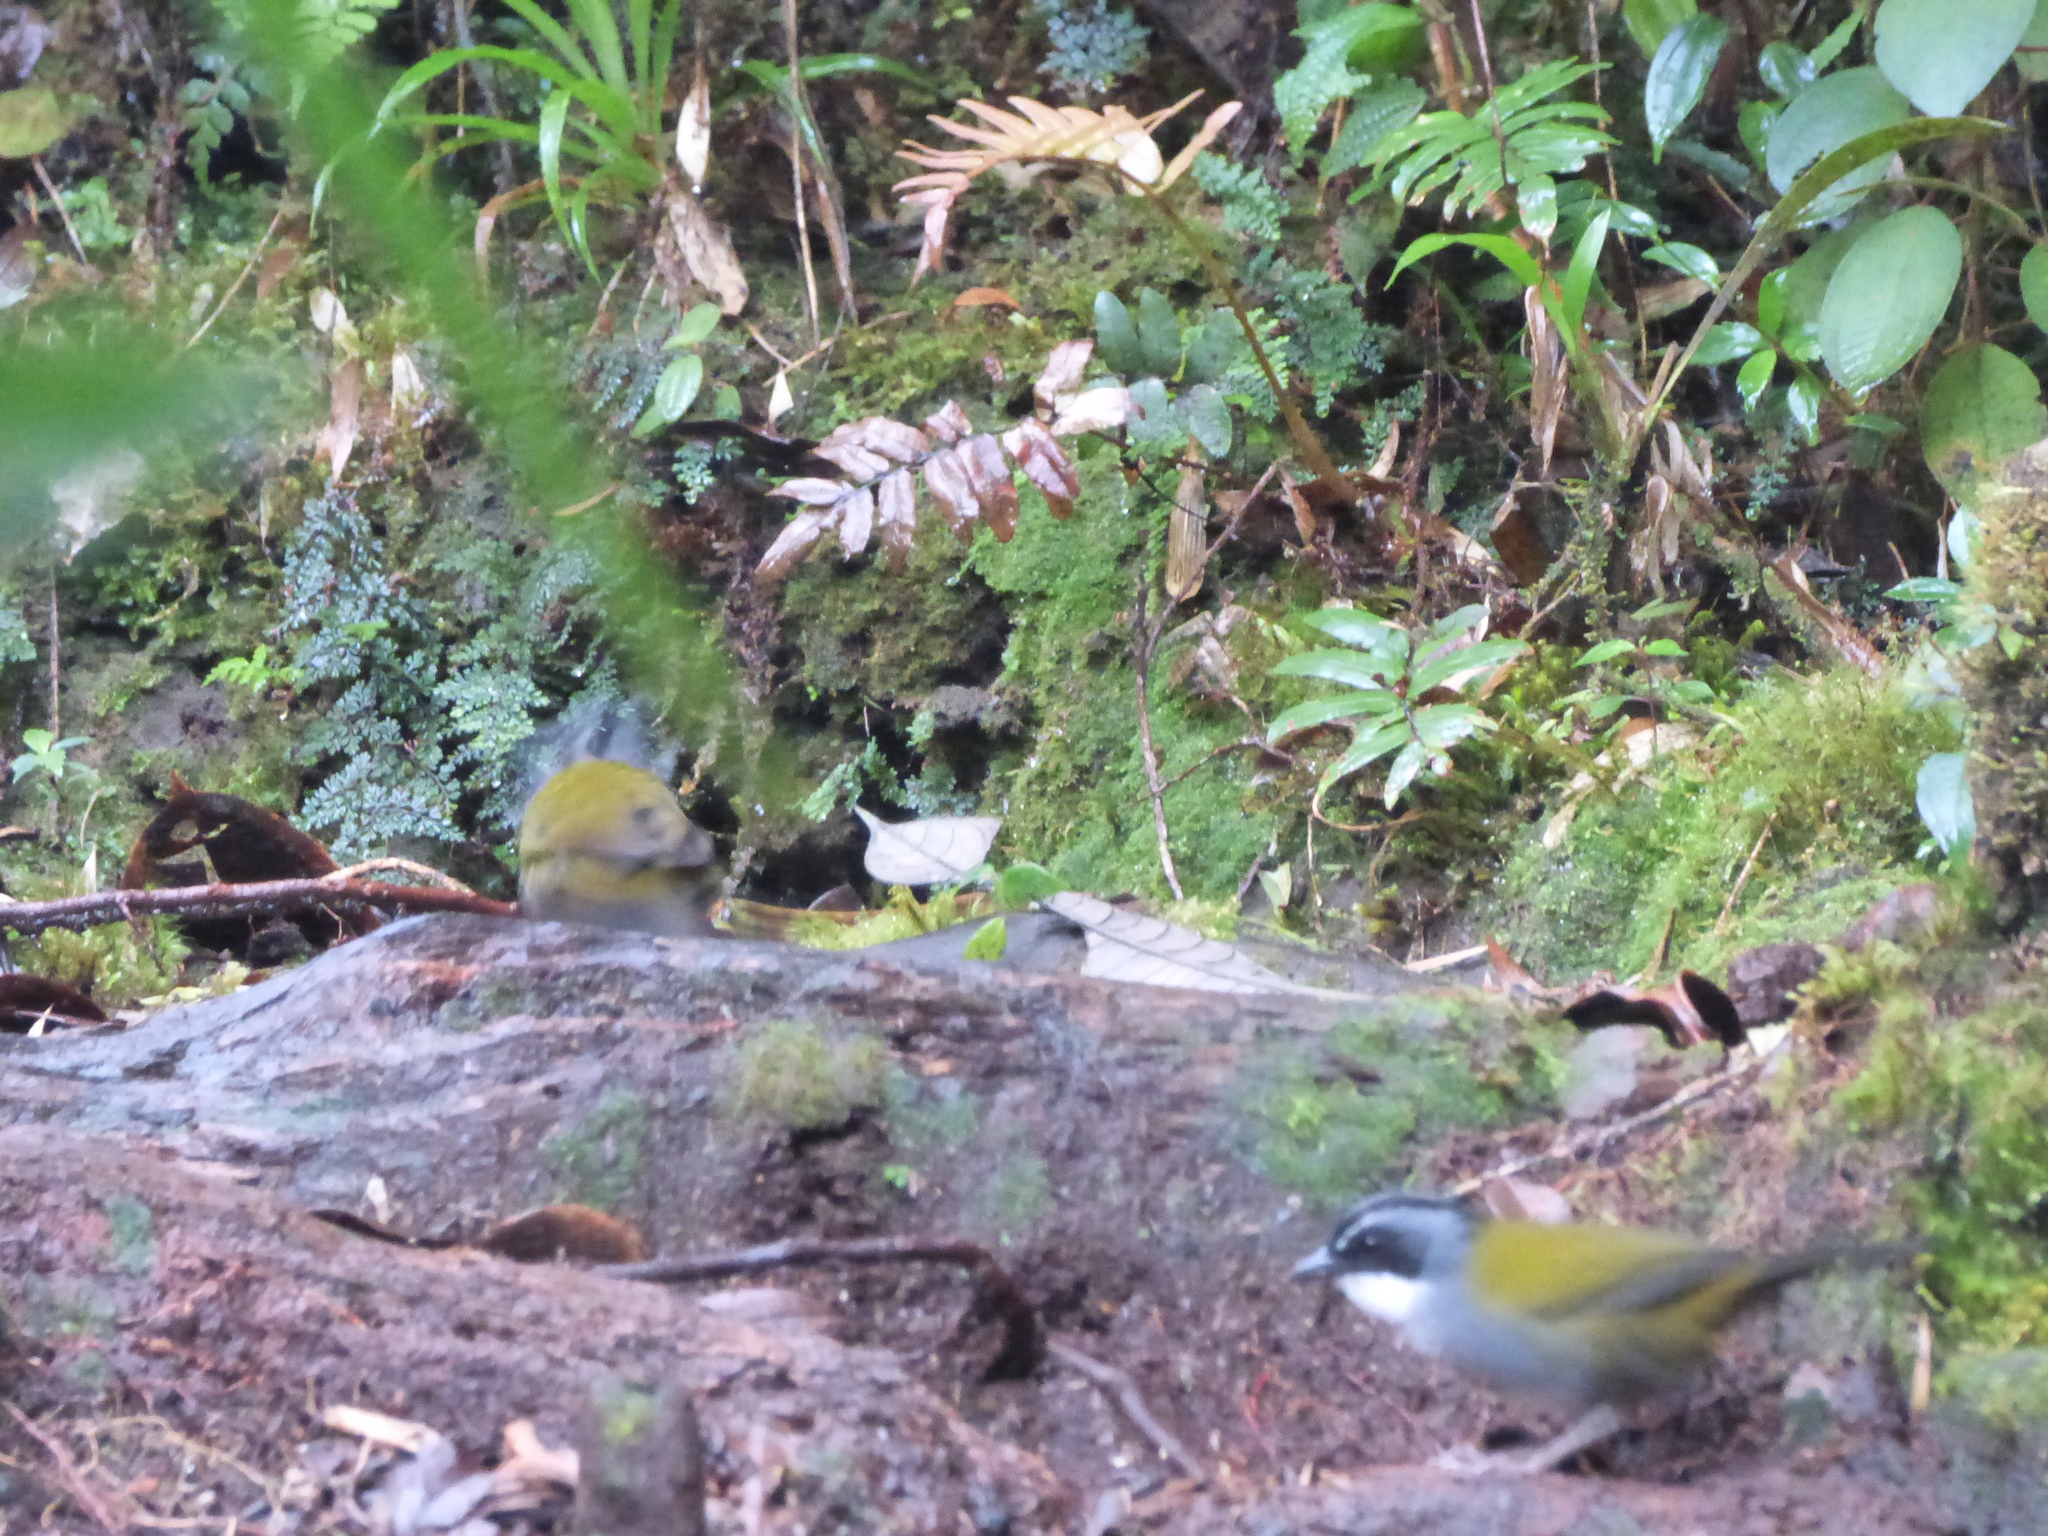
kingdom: Animalia
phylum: Chordata
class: Aves
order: Passeriformes
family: Passerellidae
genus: Arremon
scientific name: Arremon assimilis
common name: Grey-browed brushfinch
